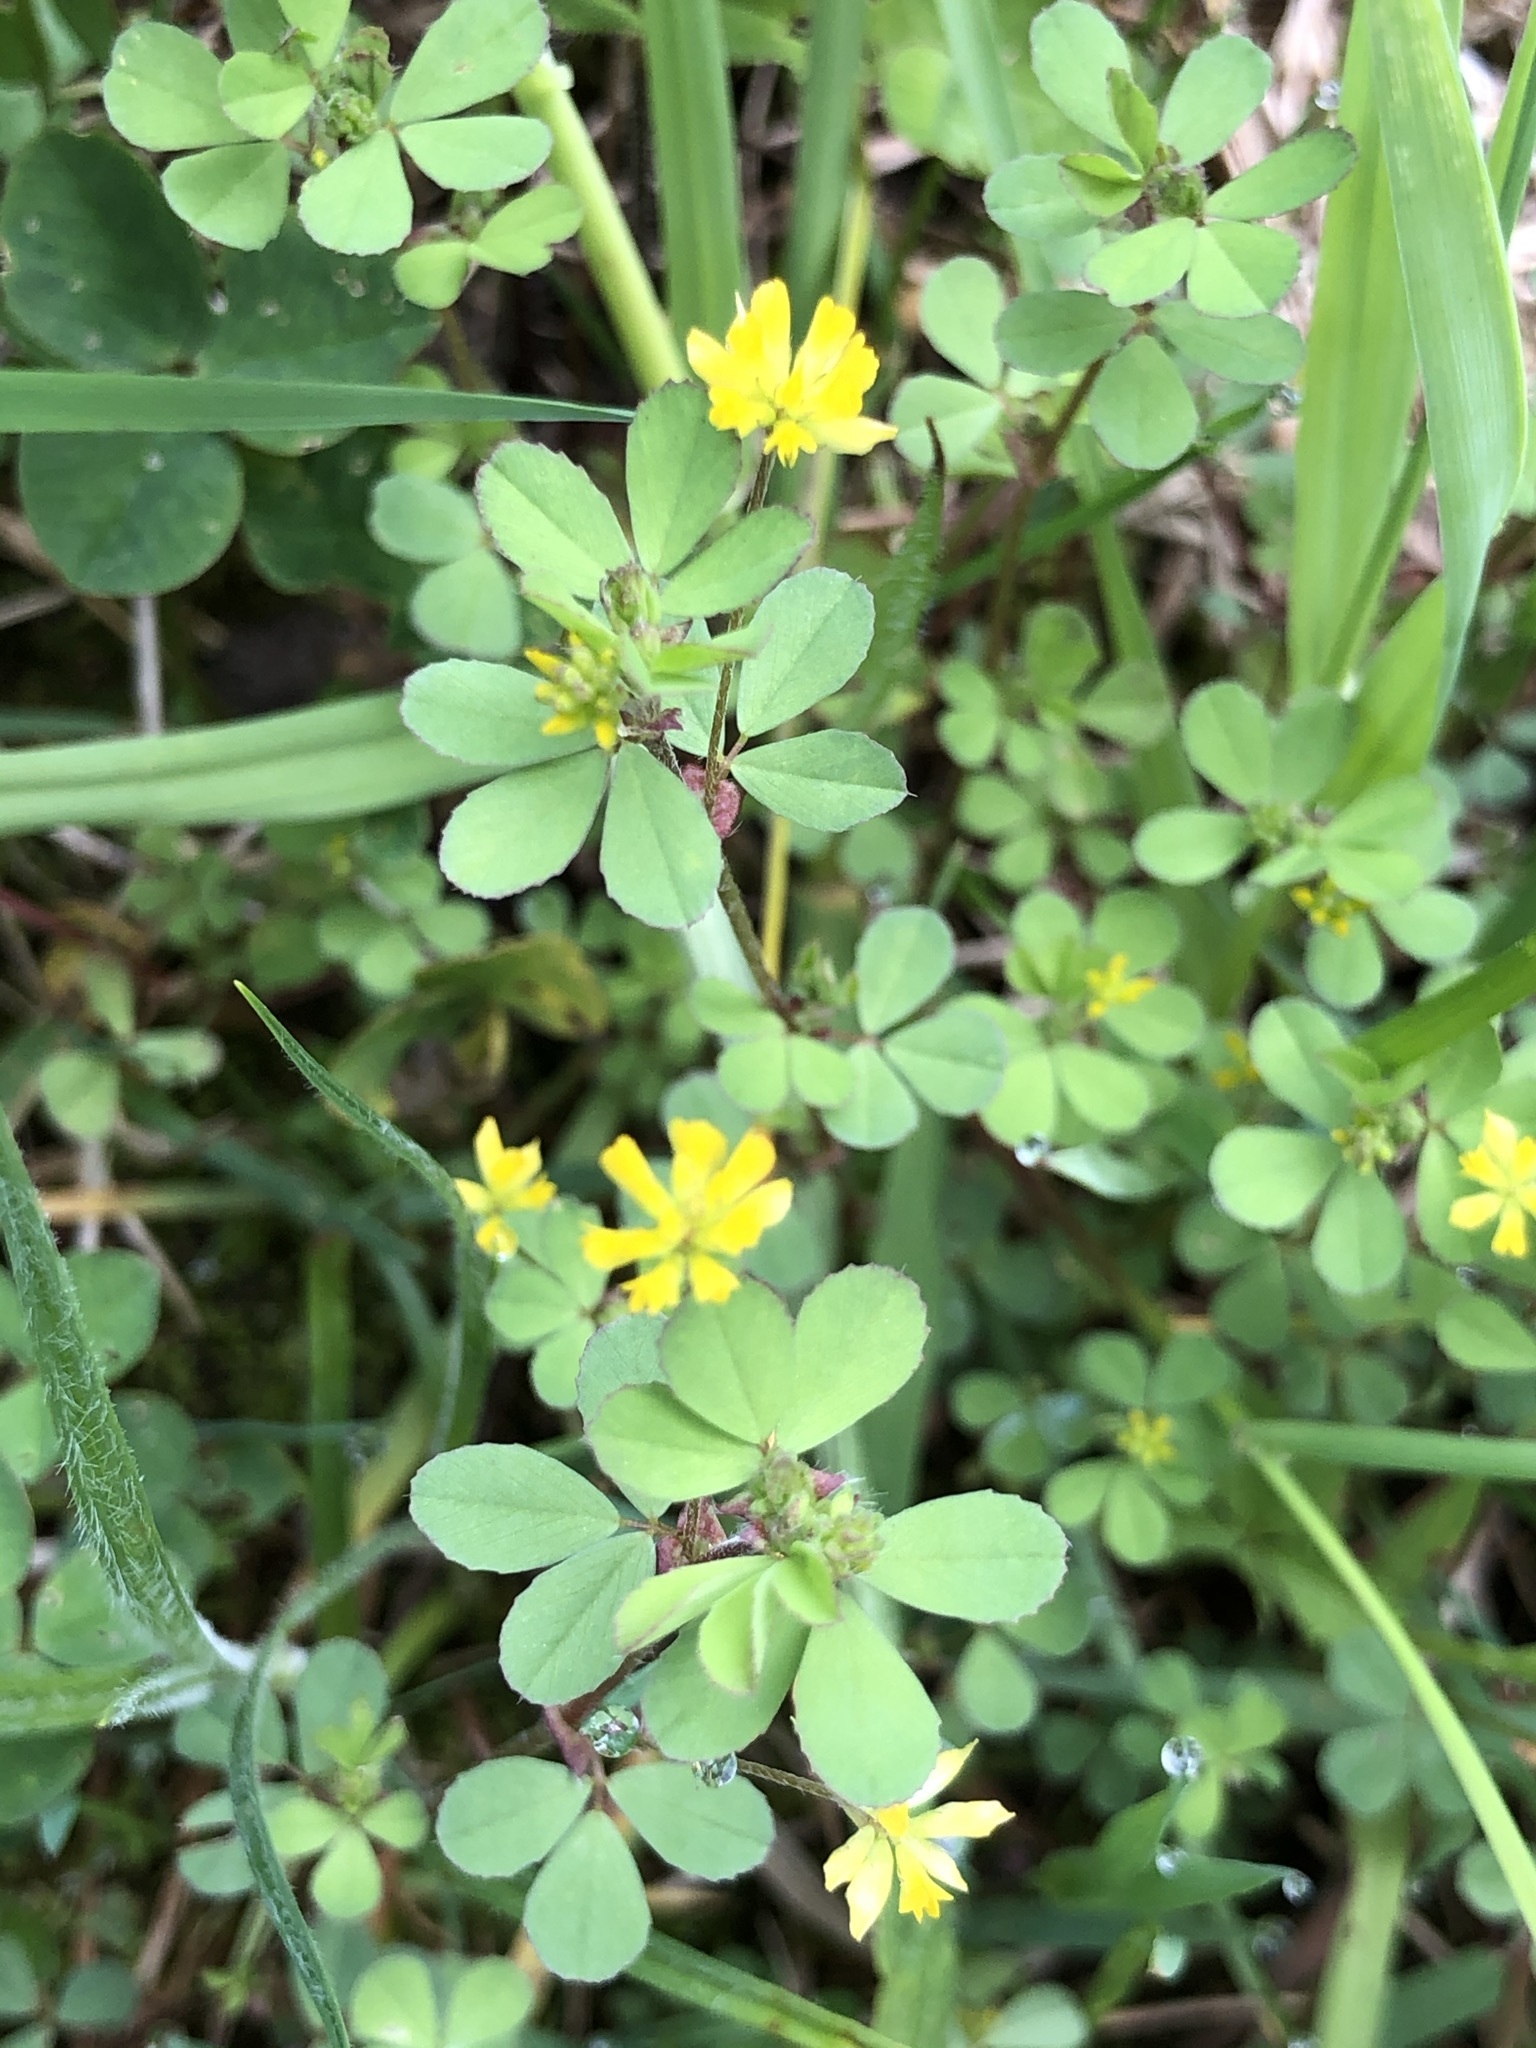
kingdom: Plantae
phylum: Tracheophyta
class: Magnoliopsida
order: Fabales
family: Fabaceae
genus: Trifolium
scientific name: Trifolium dubium
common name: Suckling clover
